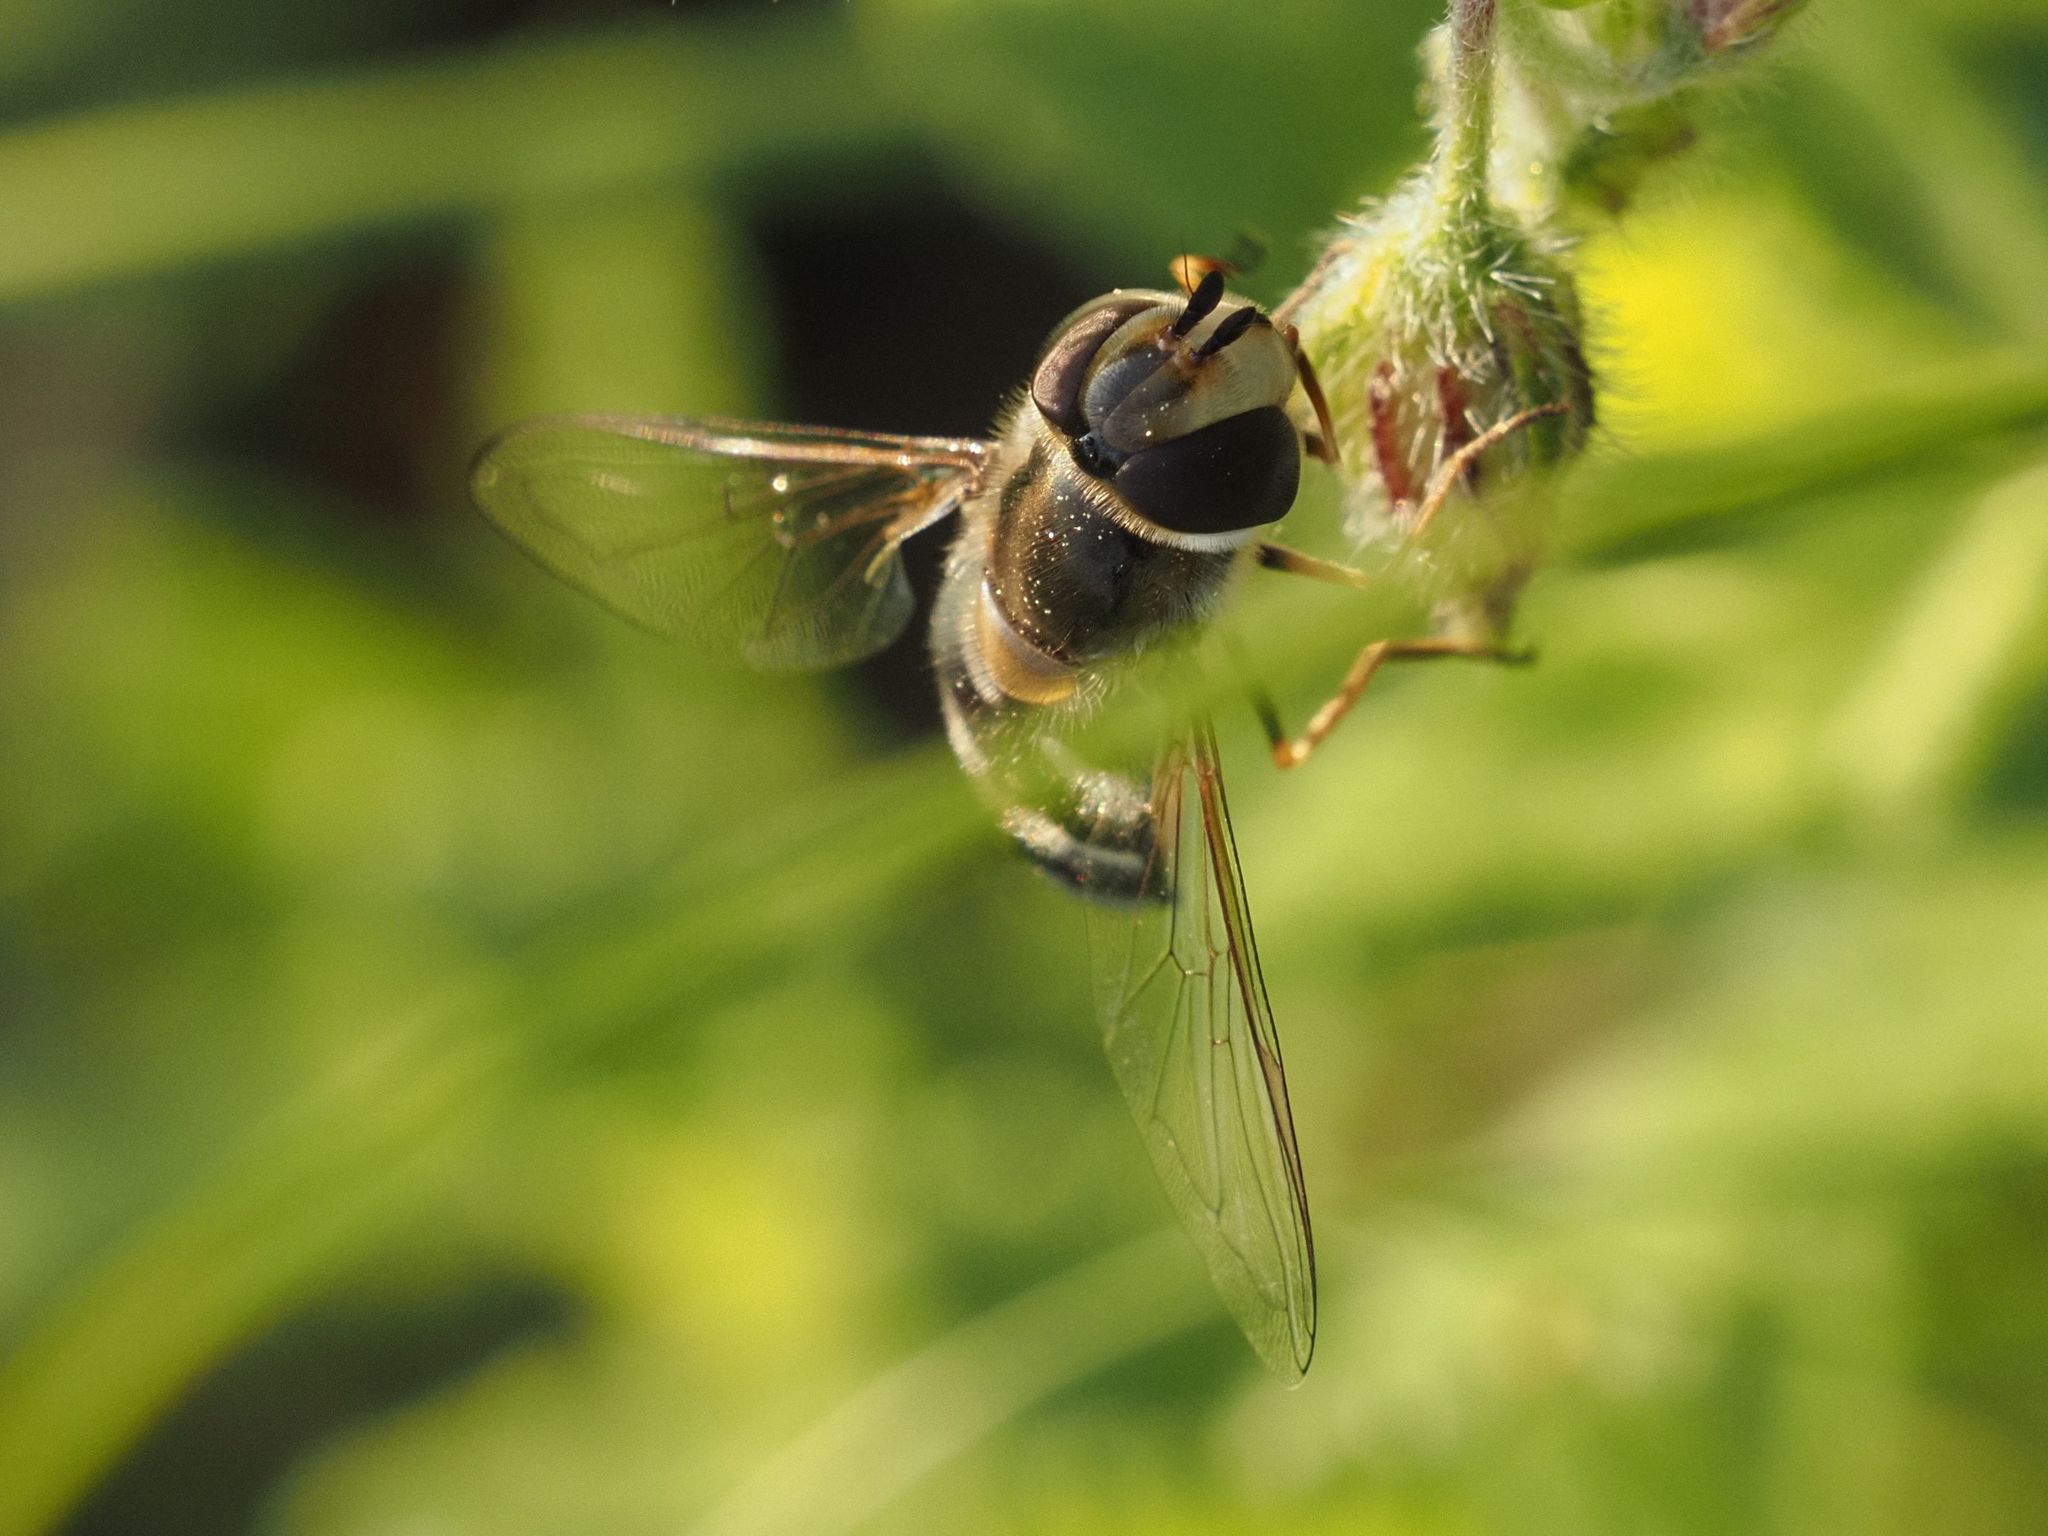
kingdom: Animalia
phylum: Arthropoda
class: Insecta
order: Diptera
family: Syrphidae
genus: Scaeva
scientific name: Scaeva pyrastri
